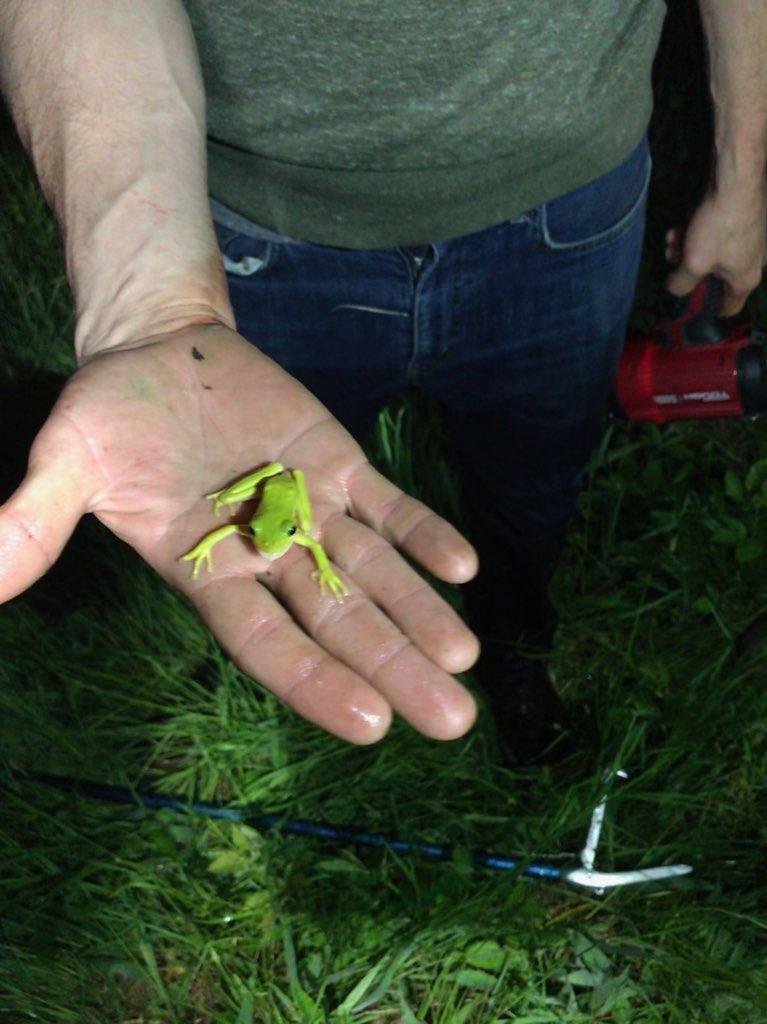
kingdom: Animalia
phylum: Chordata
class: Amphibia
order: Anura
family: Hylidae
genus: Dryophytes
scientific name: Dryophytes cinereus
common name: Green treefrog
